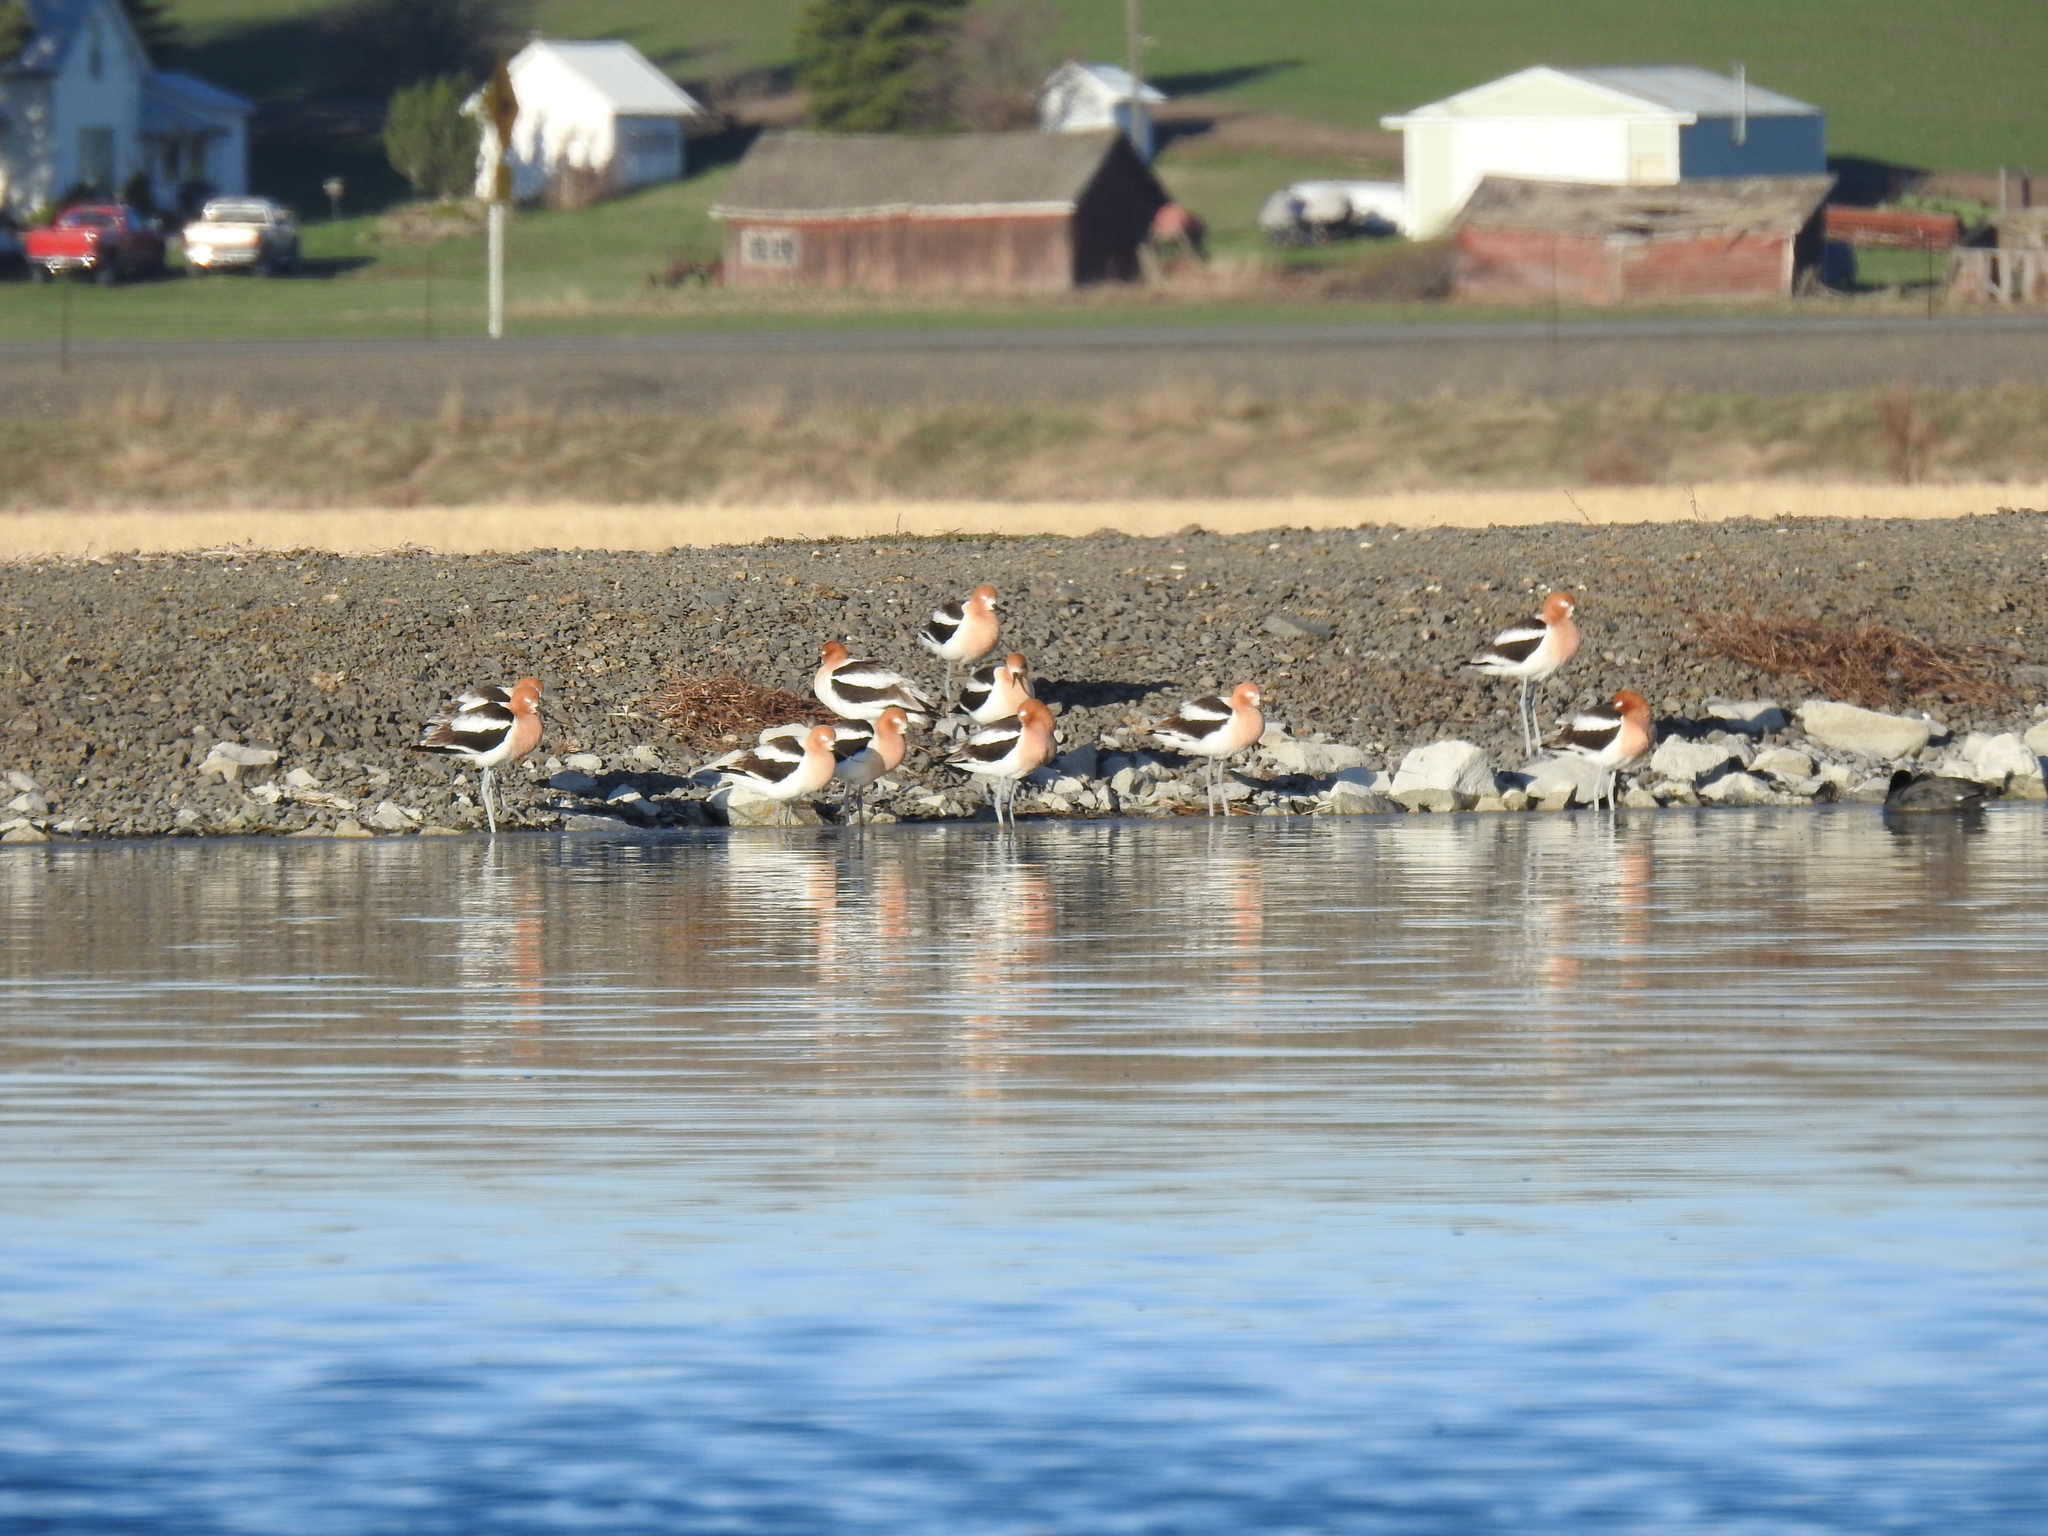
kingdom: Animalia
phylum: Chordata
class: Aves
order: Charadriiformes
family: Recurvirostridae
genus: Recurvirostra
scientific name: Recurvirostra americana
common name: American avocet
